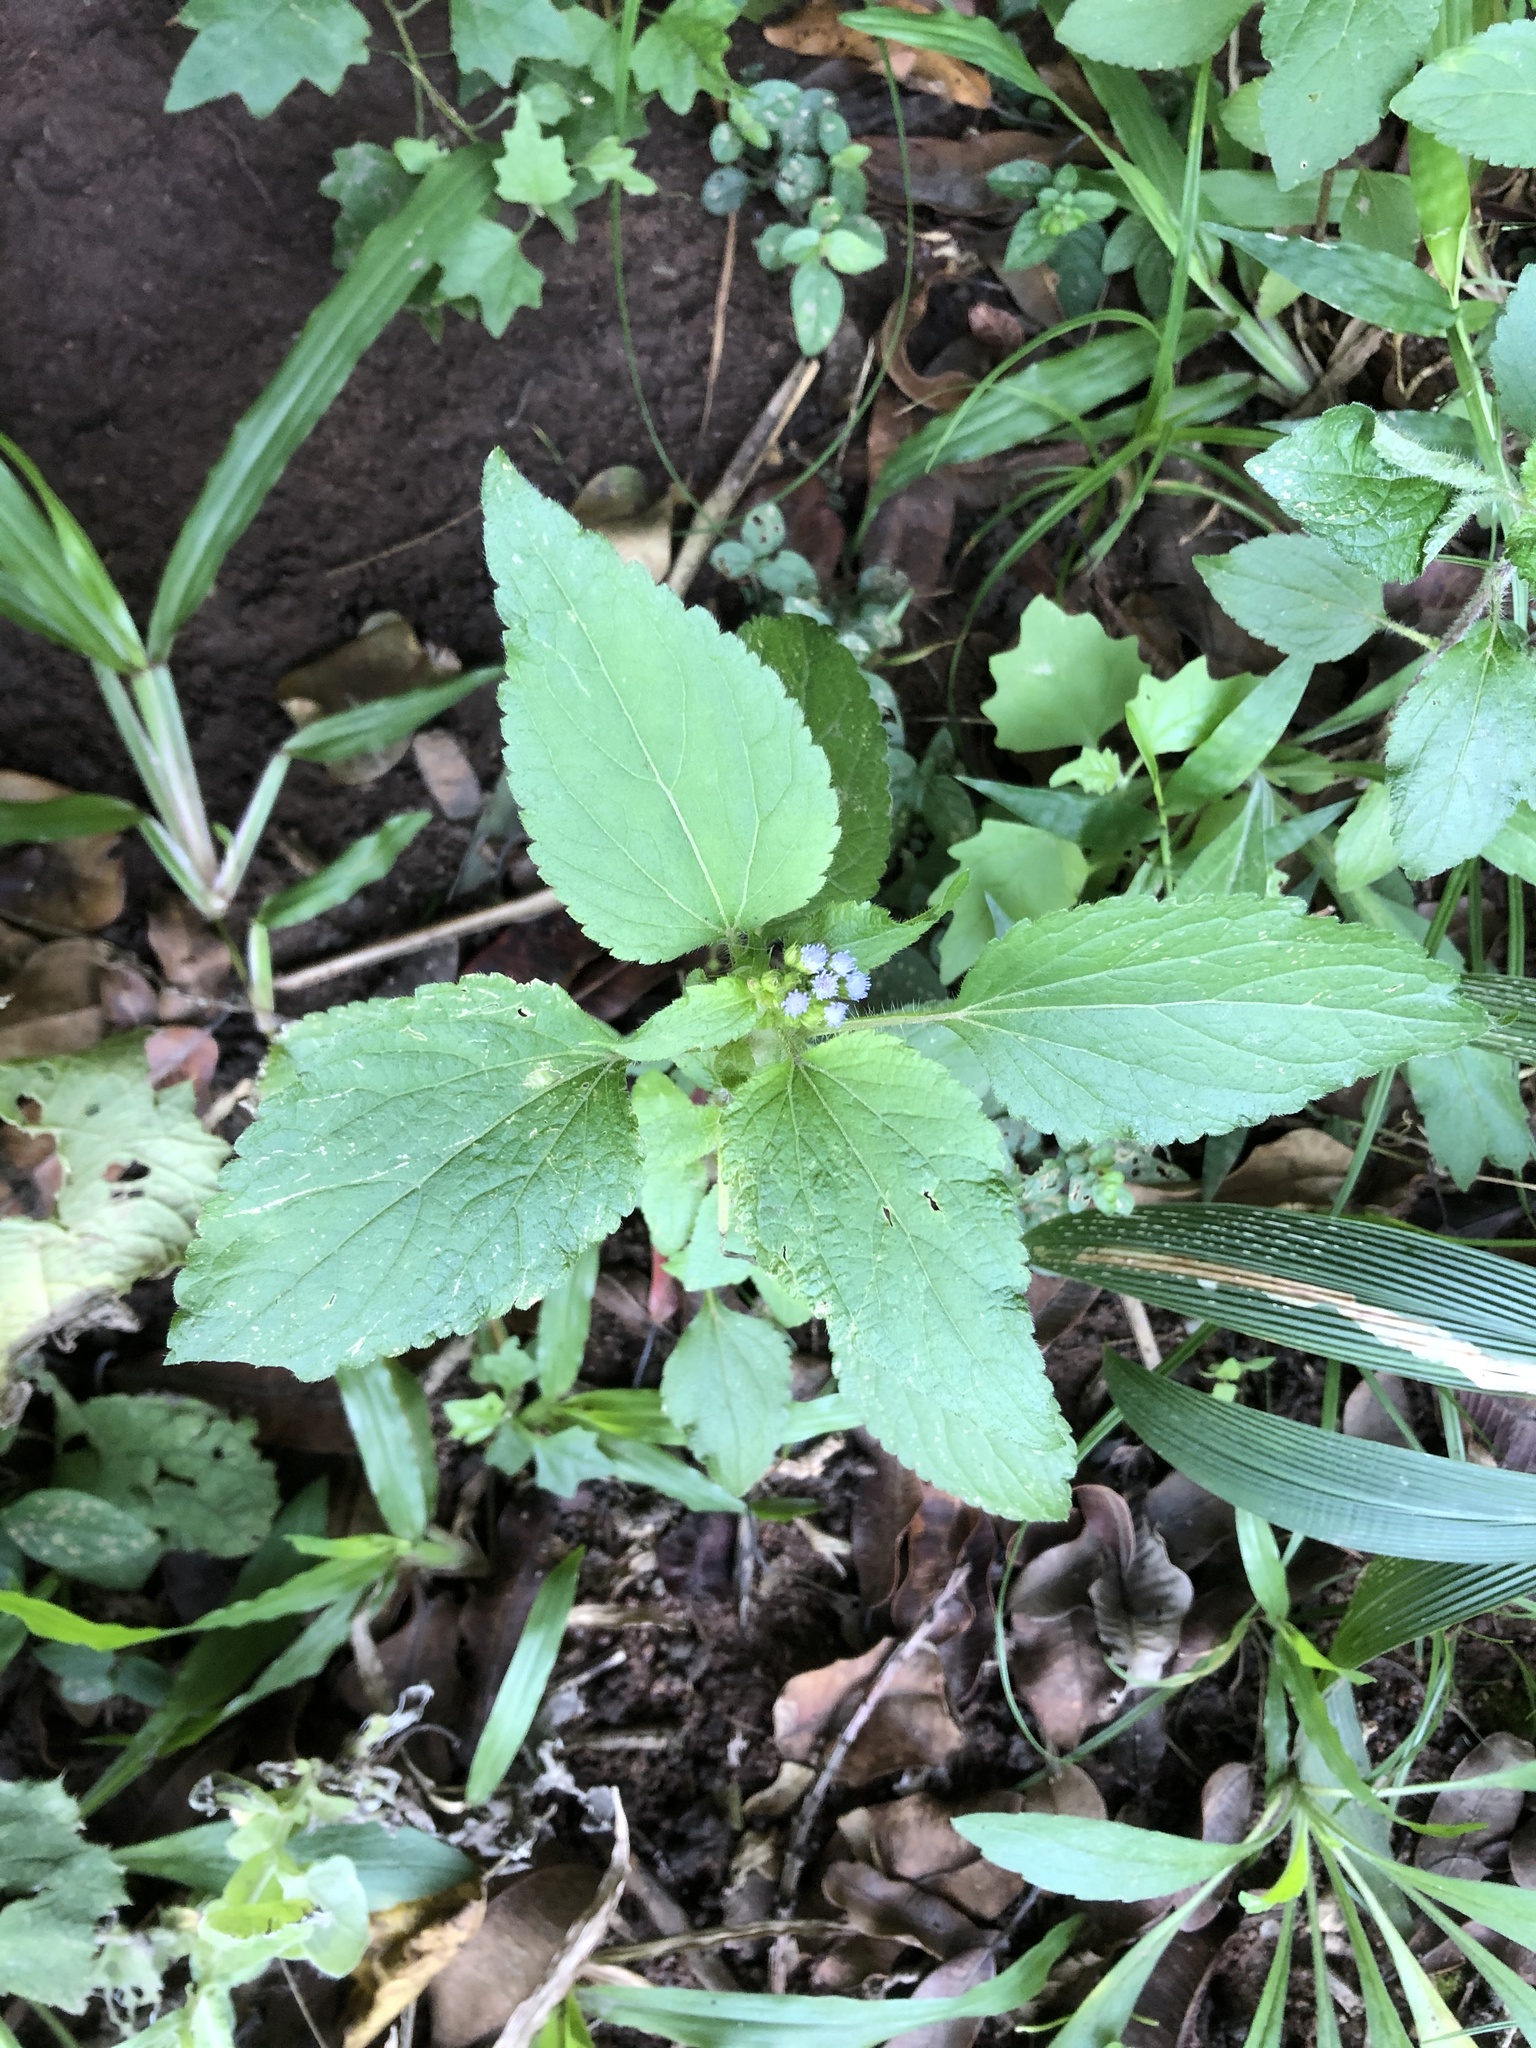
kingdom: Plantae
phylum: Tracheophyta
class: Magnoliopsida
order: Asterales
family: Asteraceae
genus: Ageratum
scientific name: Ageratum conyzoides
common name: Tropical whiteweed
